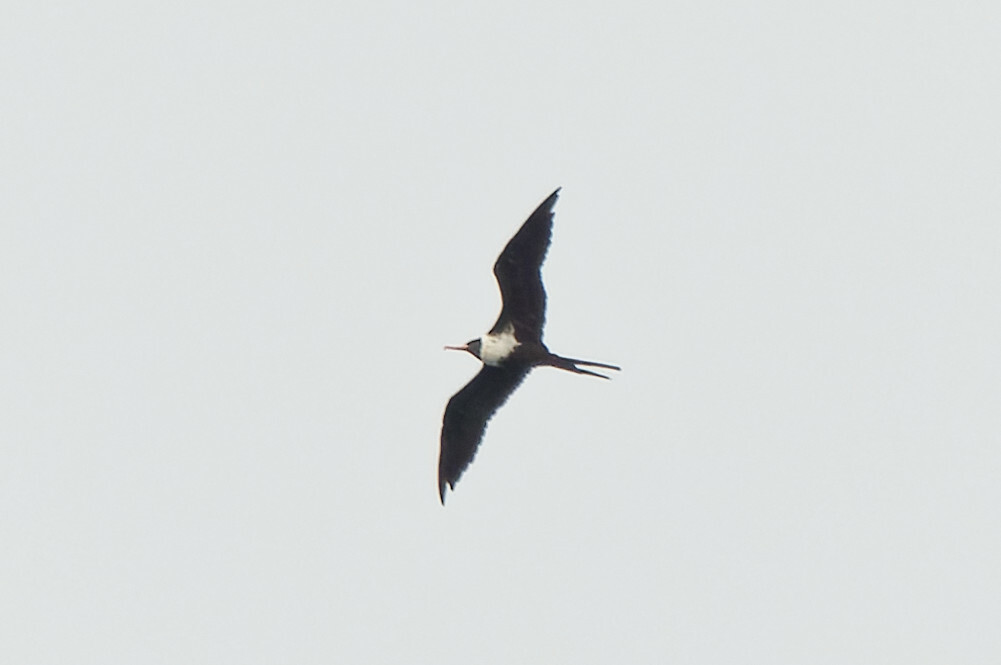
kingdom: Animalia
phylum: Chordata
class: Aves
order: Suliformes
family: Fregatidae
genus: Fregata
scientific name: Fregata ariel
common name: Lesser frigatebird
